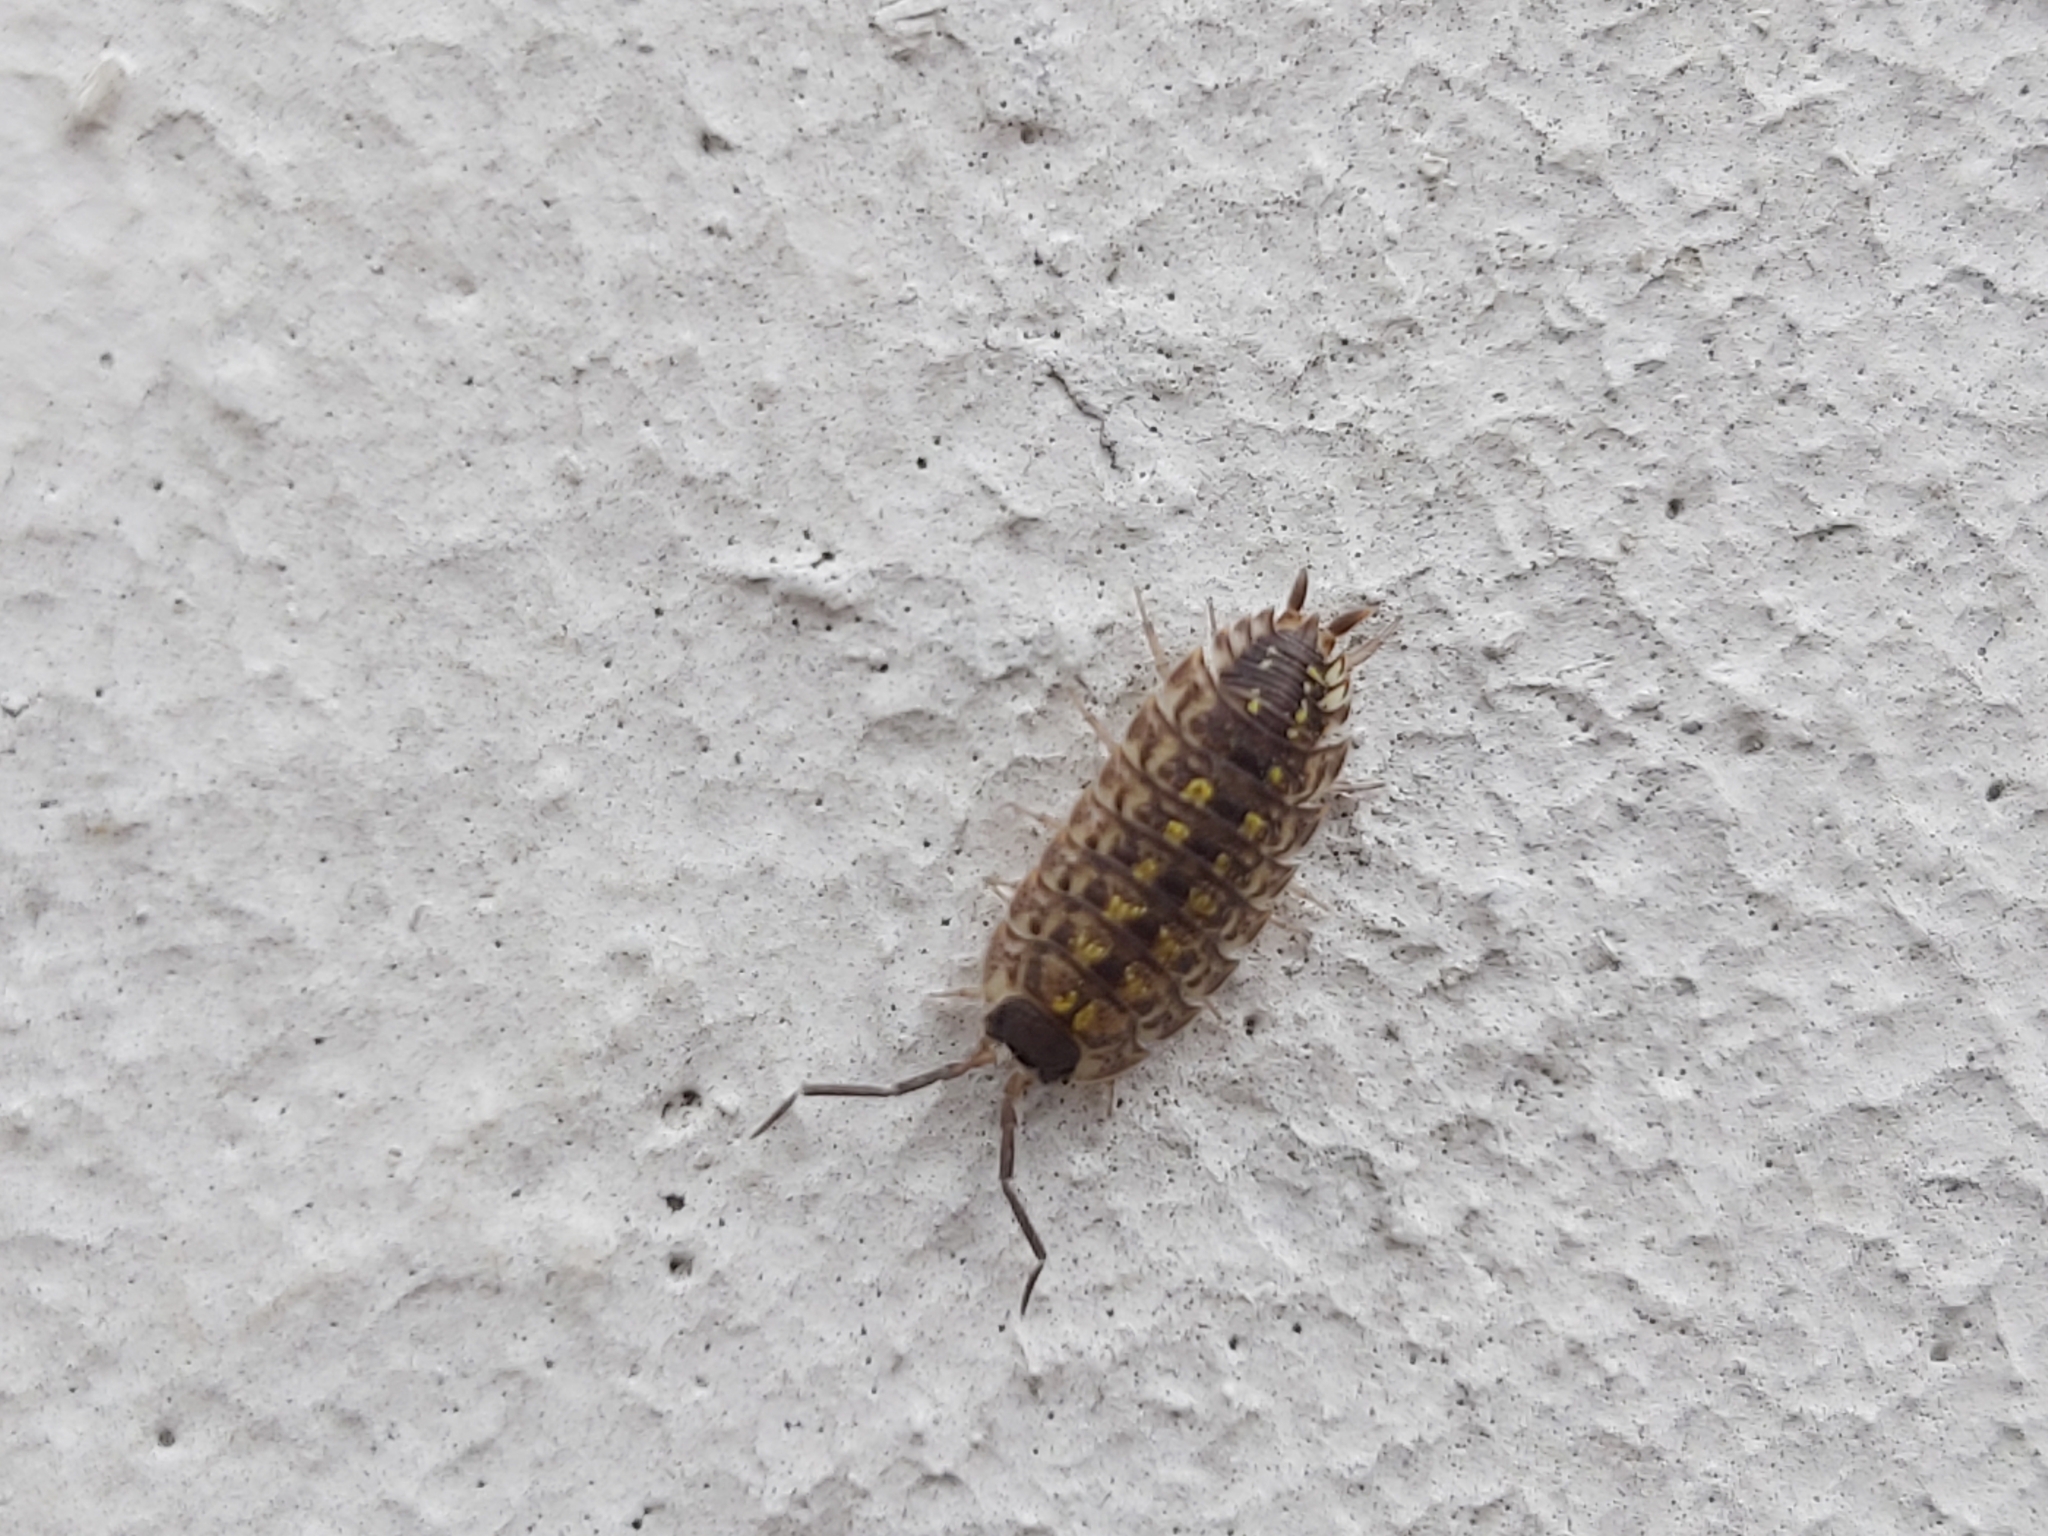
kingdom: Animalia
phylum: Arthropoda
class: Malacostraca
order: Isopoda
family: Porcellionidae
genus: Porcellio
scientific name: Porcellio spinicornis
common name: Painted woodlouse
